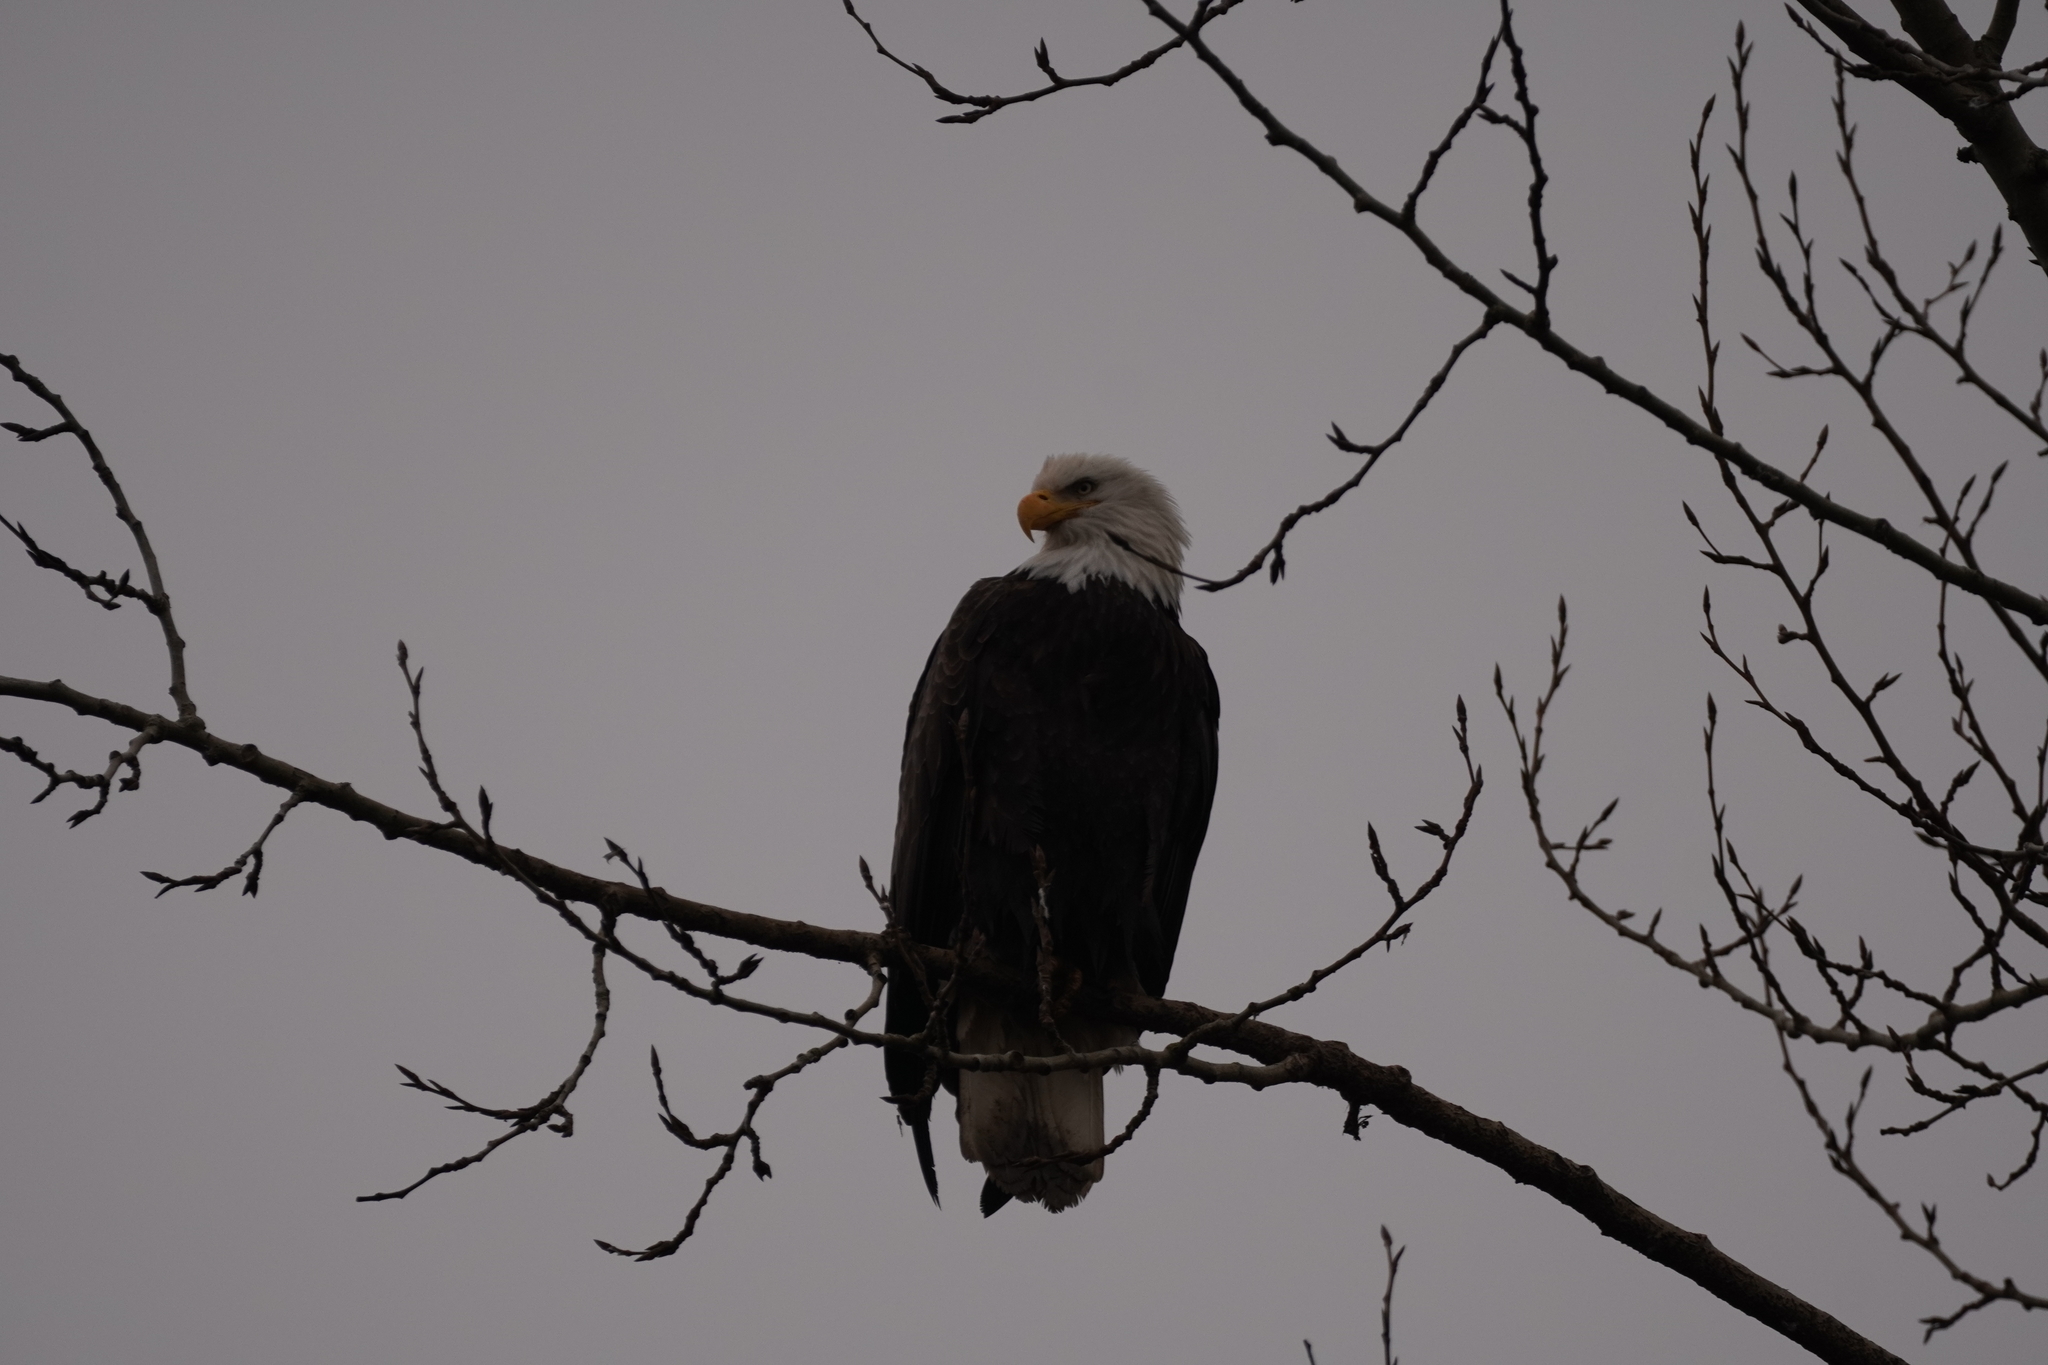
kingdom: Animalia
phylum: Chordata
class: Aves
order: Accipitriformes
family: Accipitridae
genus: Haliaeetus
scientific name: Haliaeetus leucocephalus
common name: Bald eagle
